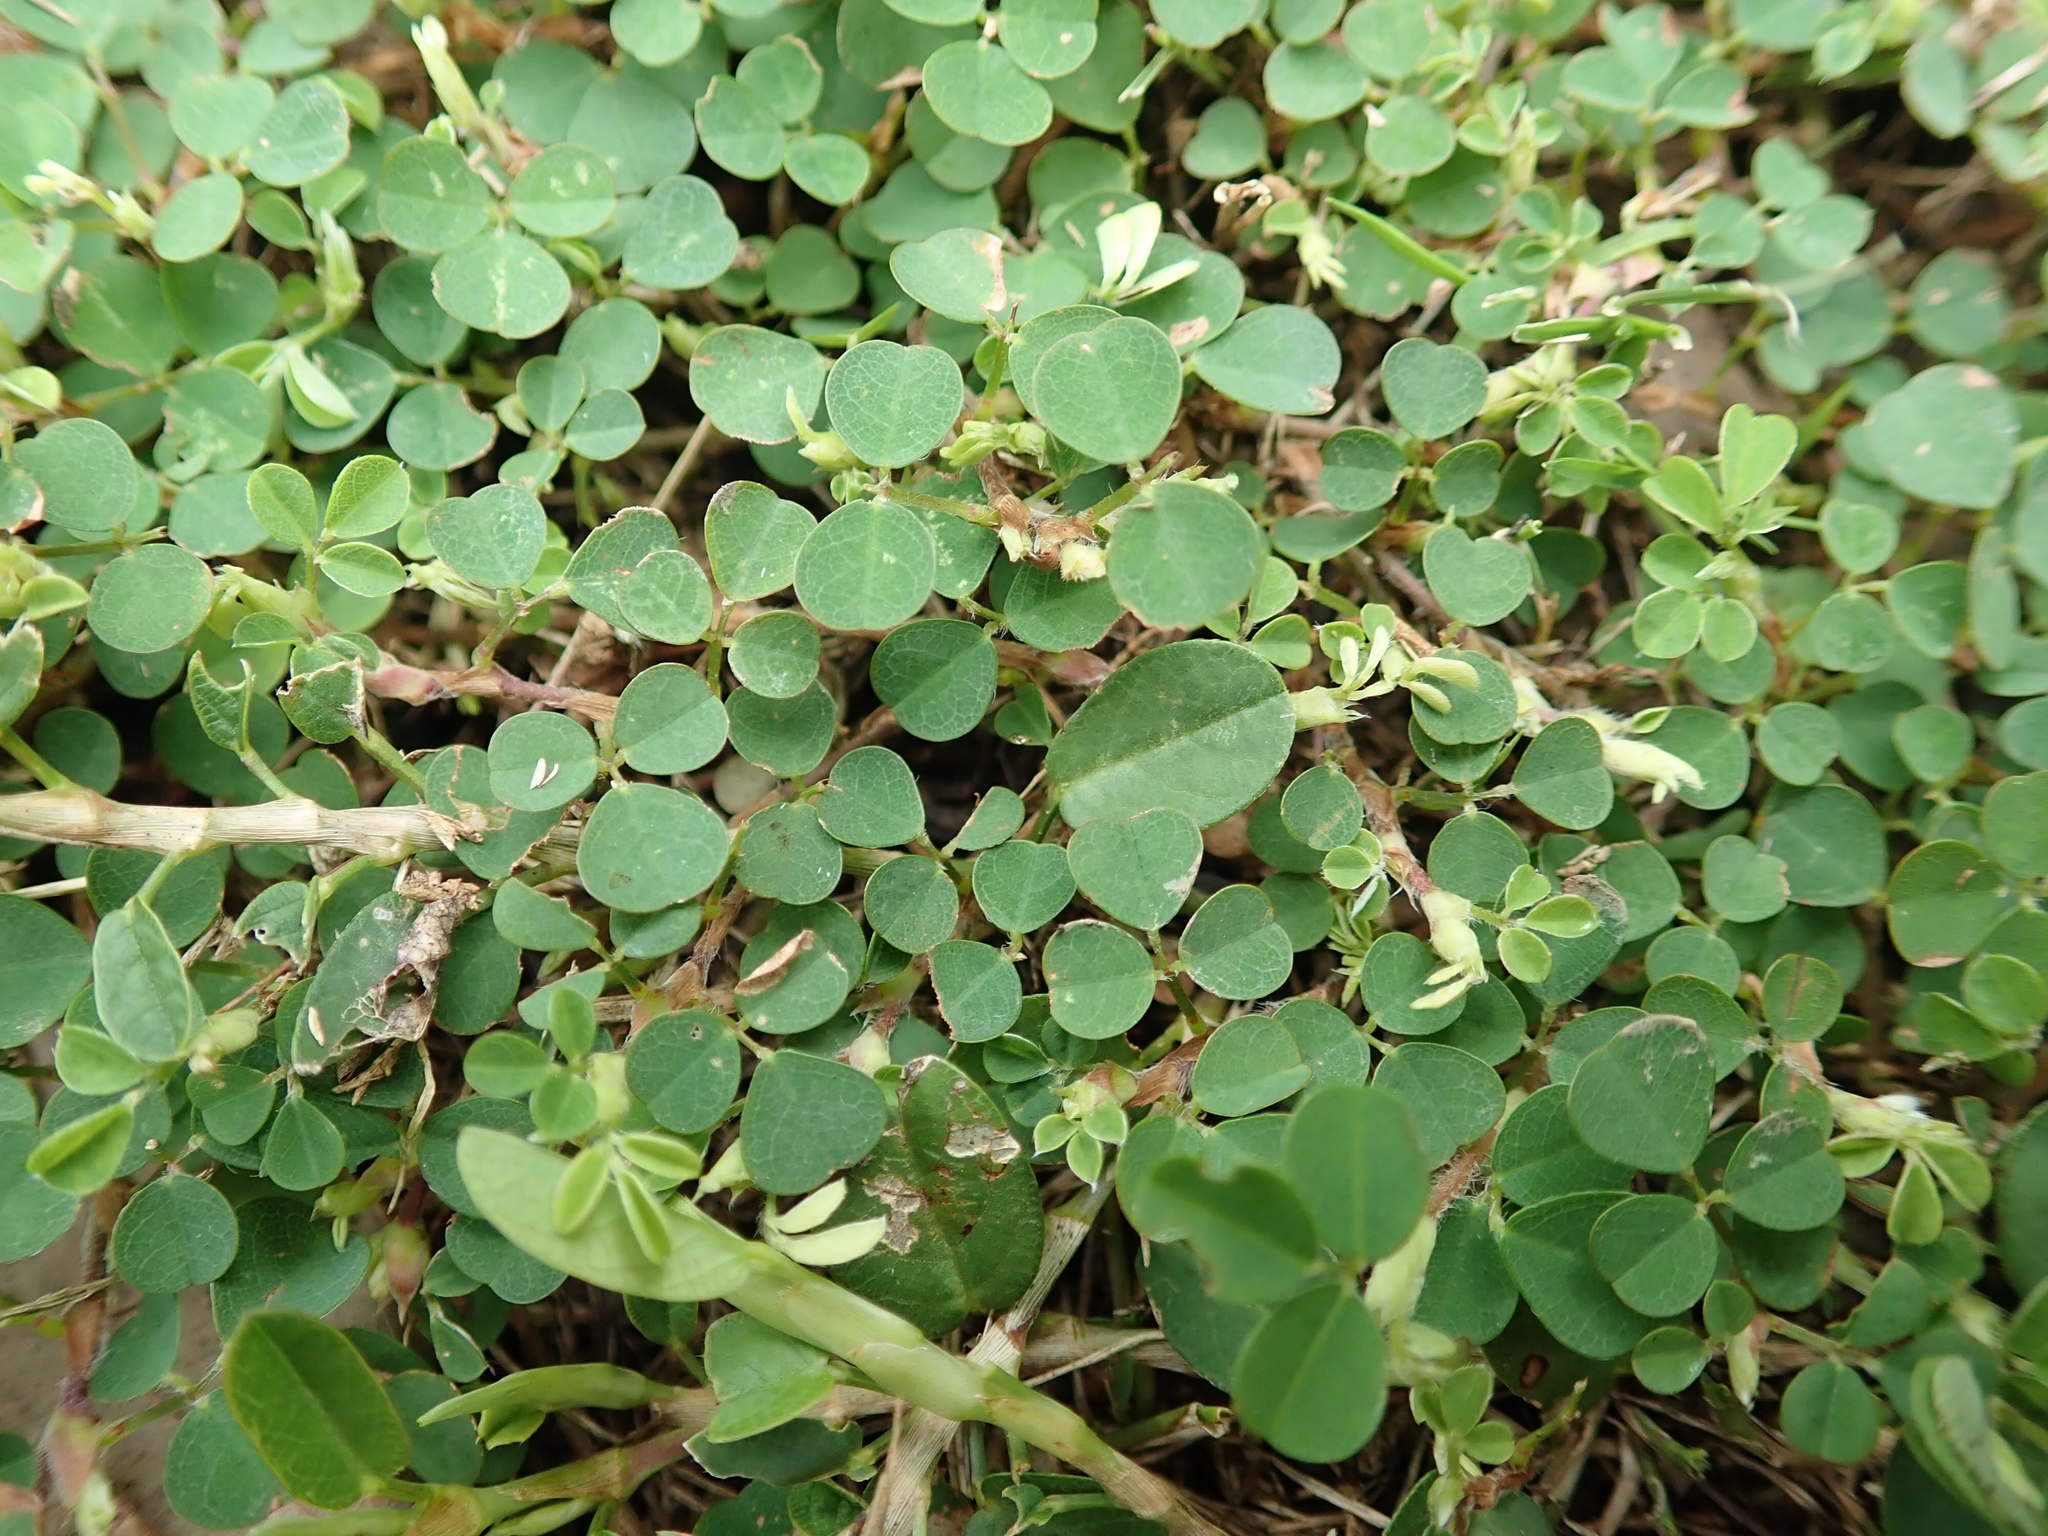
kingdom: Plantae
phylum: Tracheophyta
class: Magnoliopsida
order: Fabales
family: Fabaceae
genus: Grona
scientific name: Grona triflora
